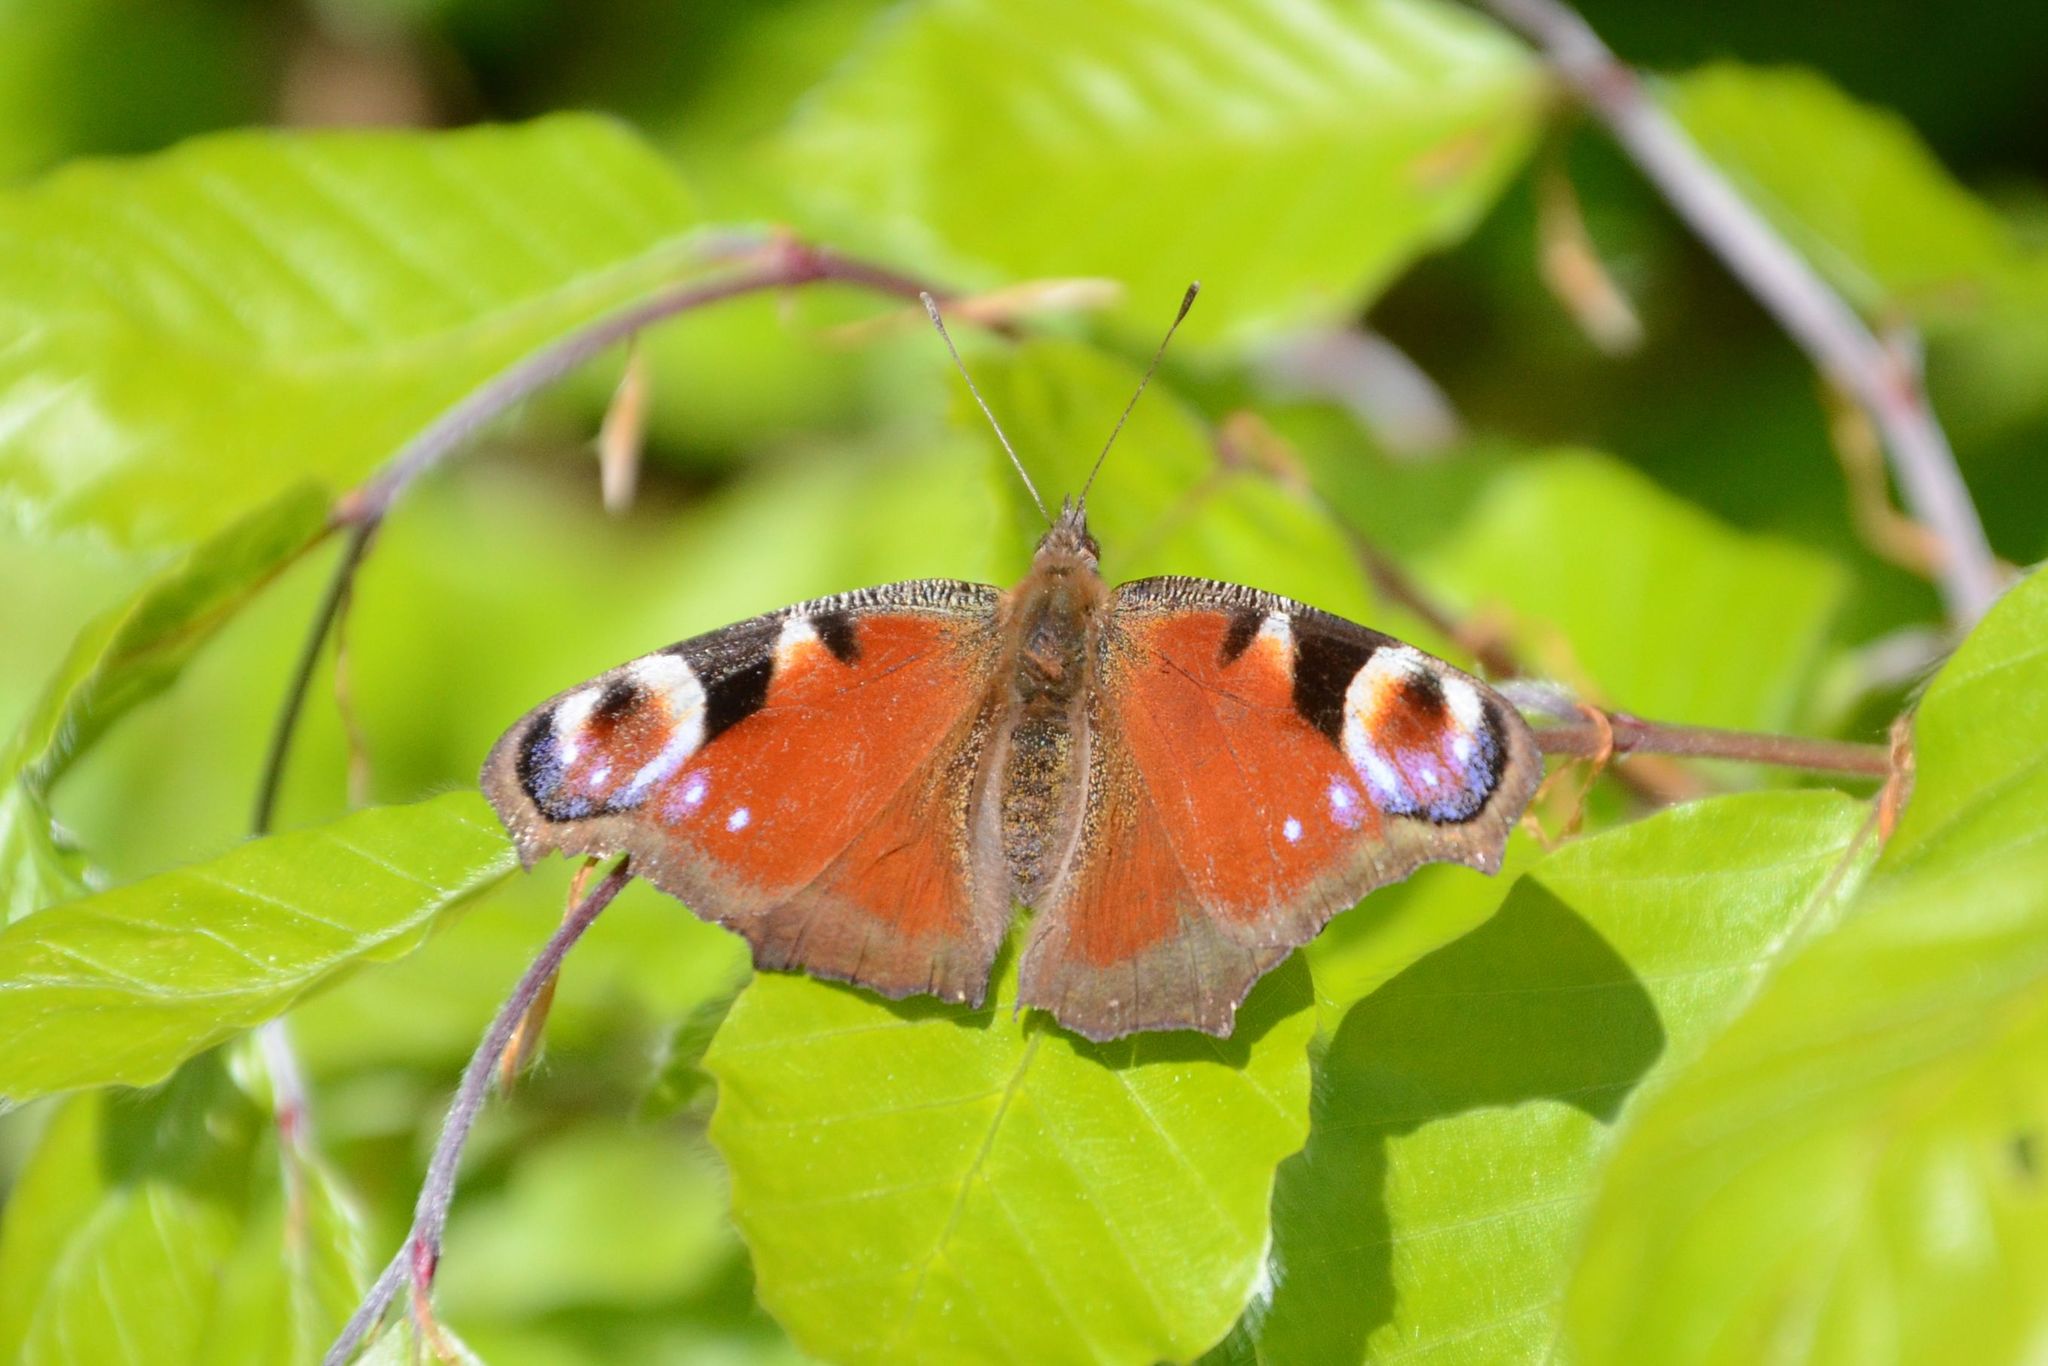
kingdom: Animalia
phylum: Arthropoda
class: Insecta
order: Lepidoptera
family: Nymphalidae
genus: Aglais
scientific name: Aglais io
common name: Peacock
